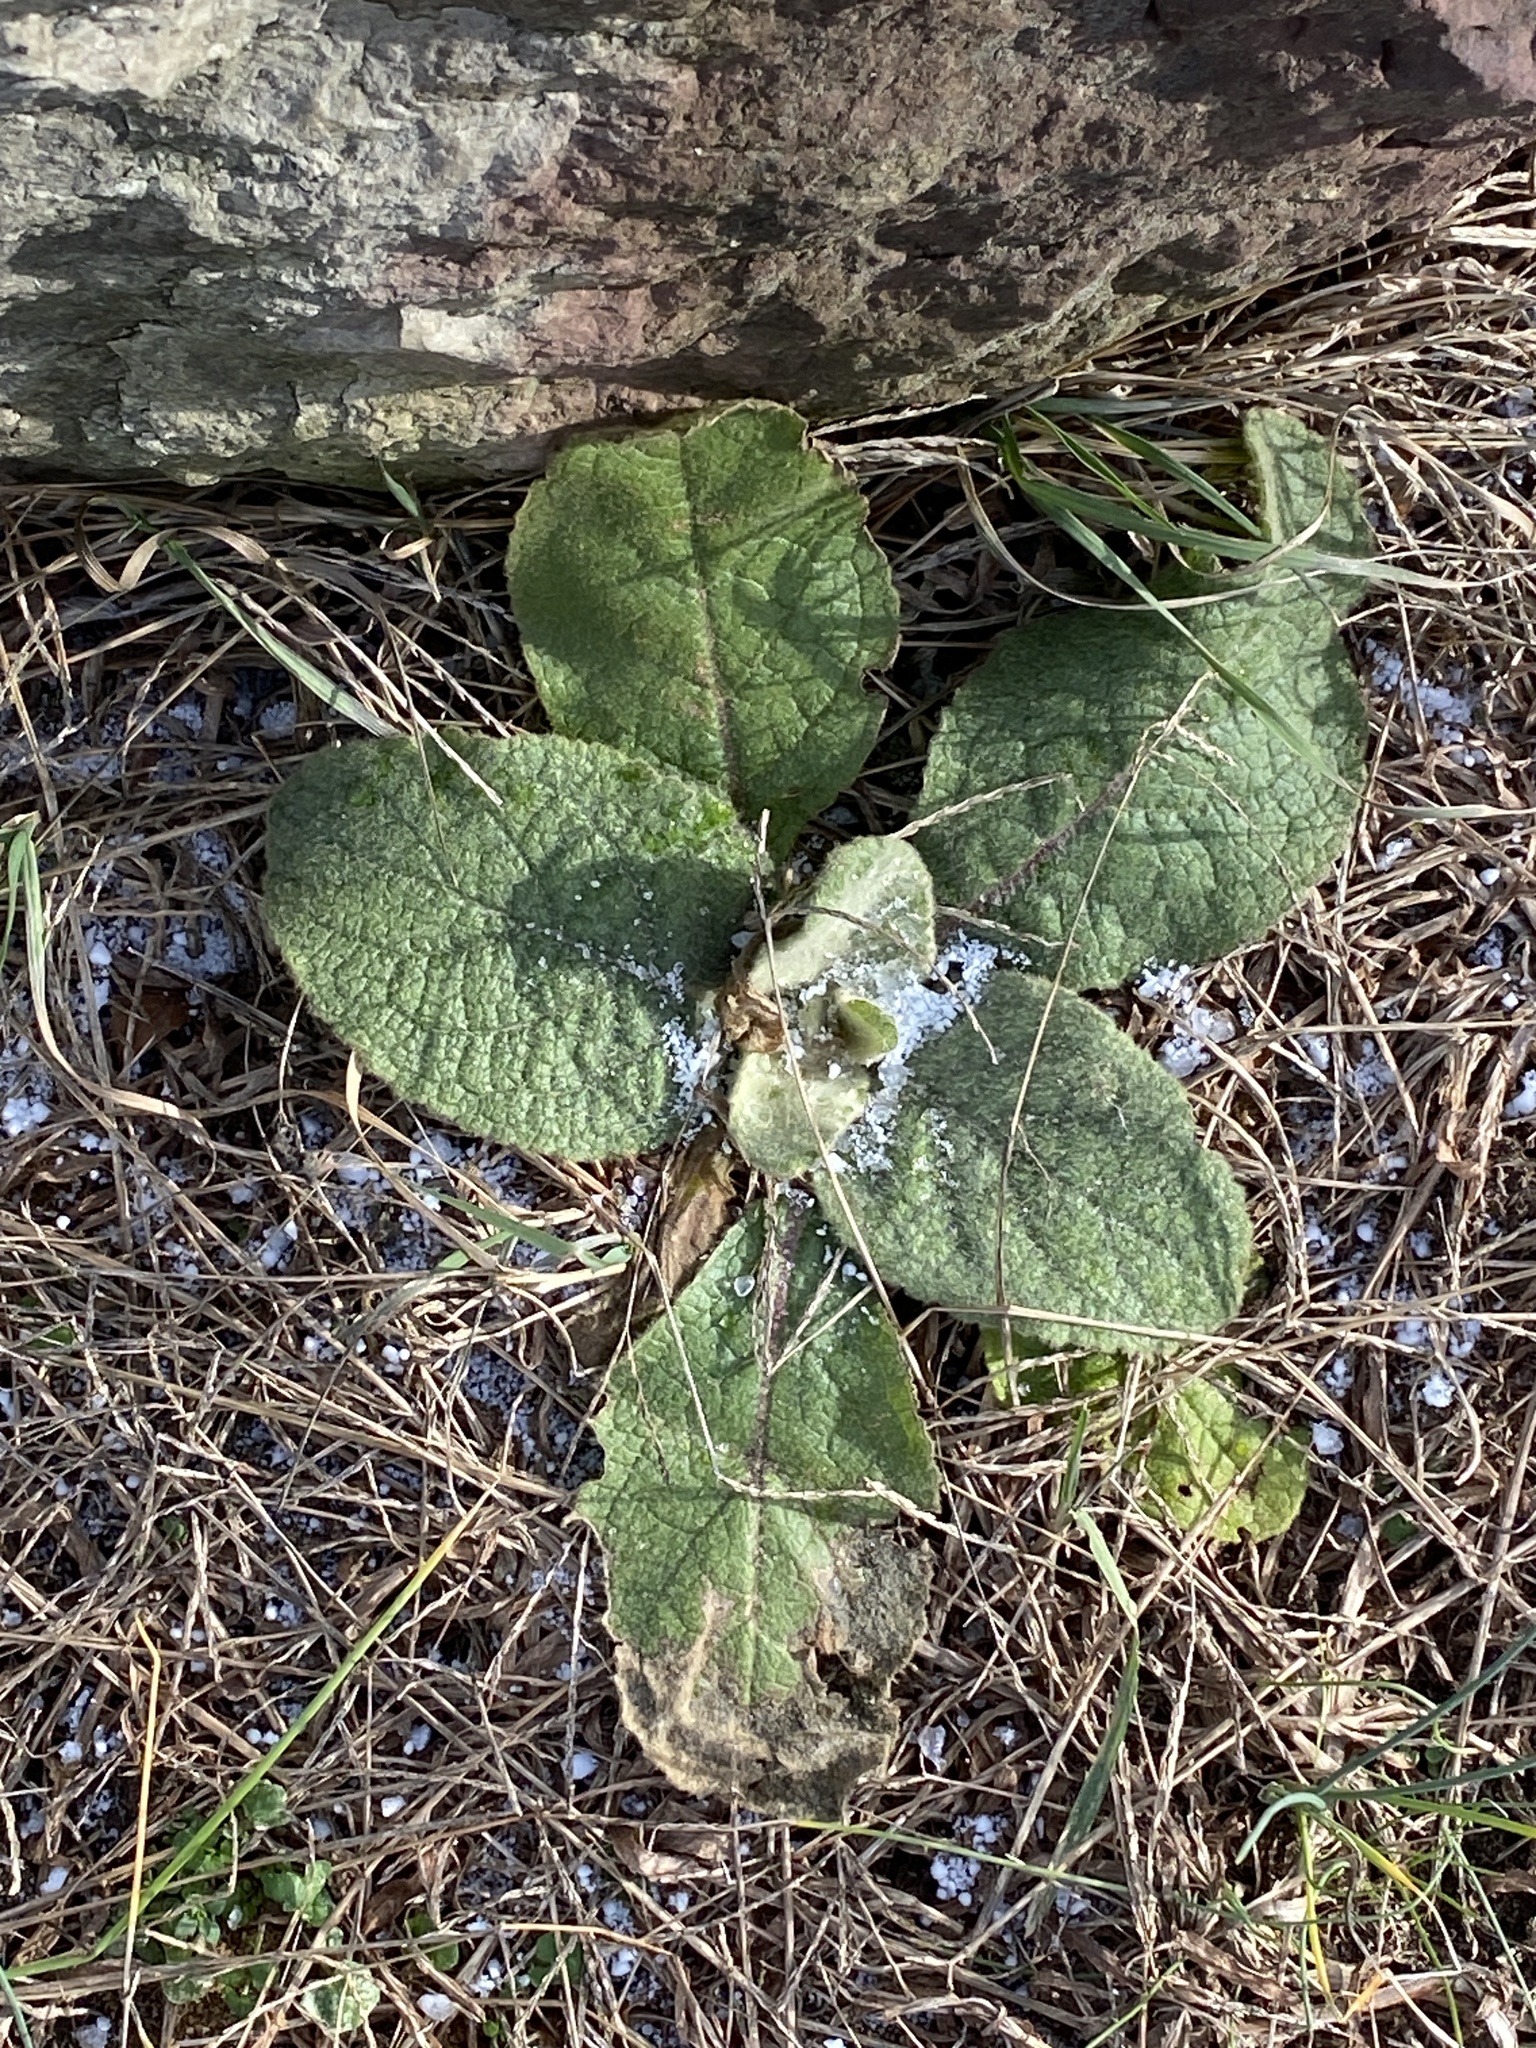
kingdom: Plantae
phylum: Tracheophyta
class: Magnoliopsida
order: Lamiales
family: Scrophulariaceae
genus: Verbascum
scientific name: Verbascum thapsus
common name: Common mullein
